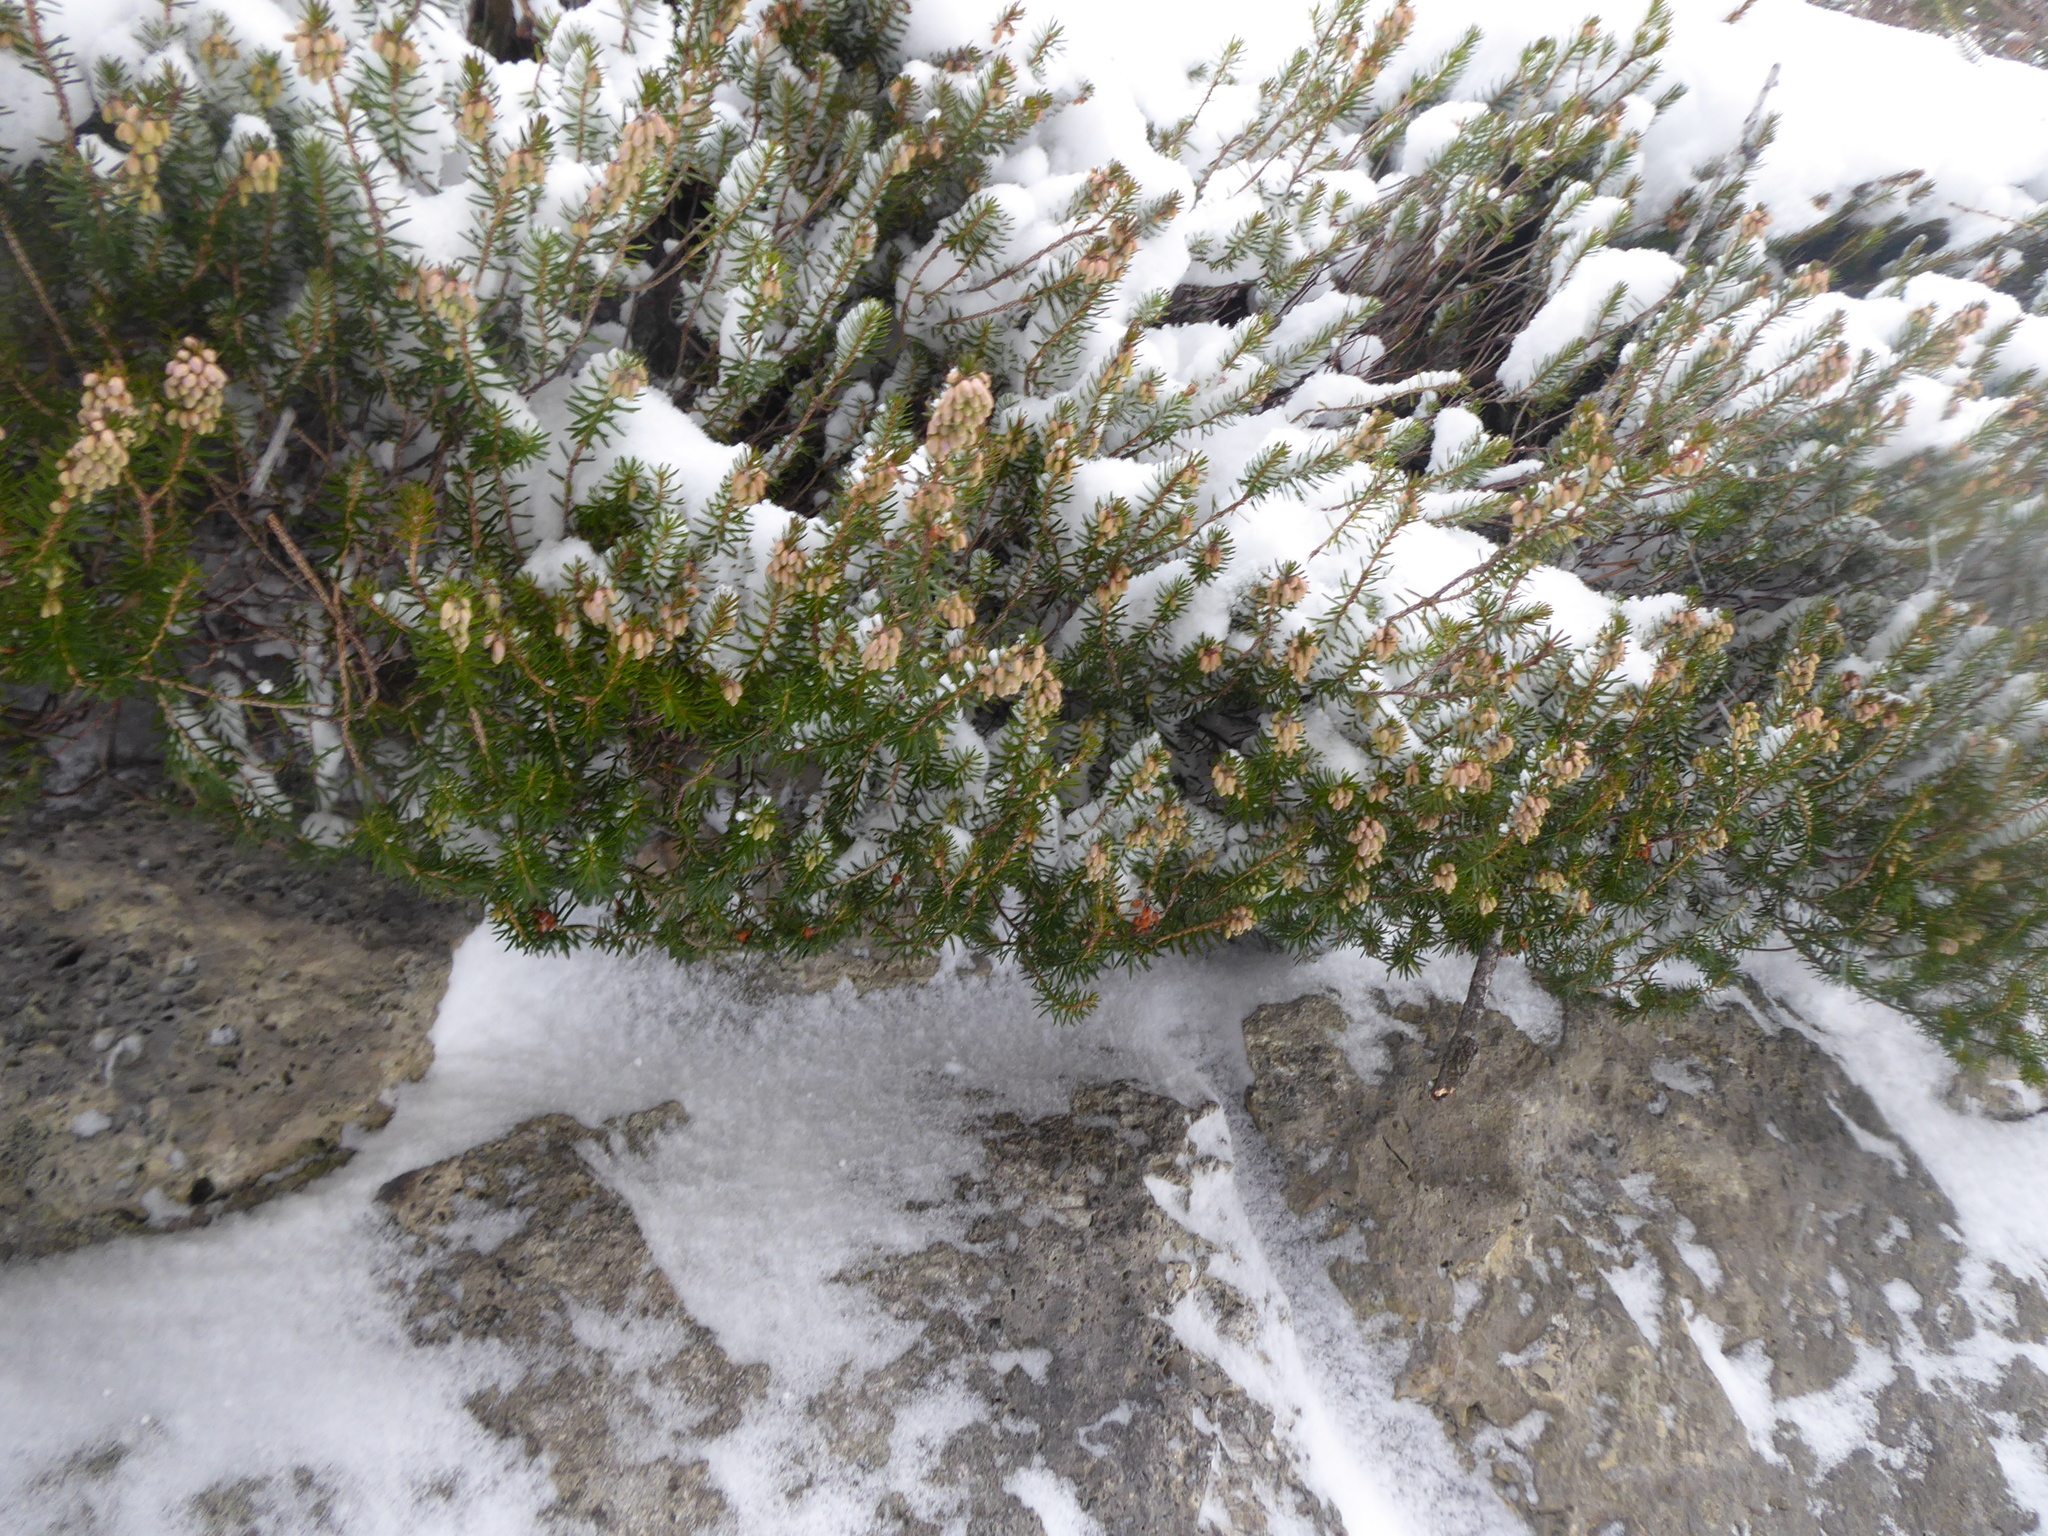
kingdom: Plantae
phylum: Tracheophyta
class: Magnoliopsida
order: Ericales
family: Ericaceae
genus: Erica
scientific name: Erica carnea
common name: Winter heath
